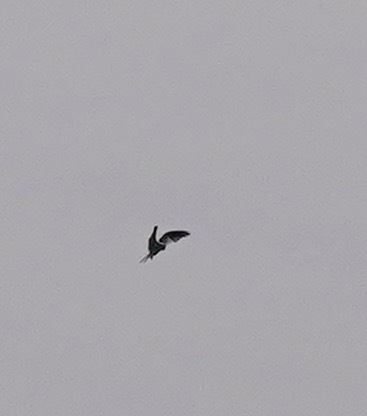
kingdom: Animalia
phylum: Chordata
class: Aves
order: Accipitriformes
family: Accipitridae
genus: Elanus
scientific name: Elanus leucurus
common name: White-tailed kite
